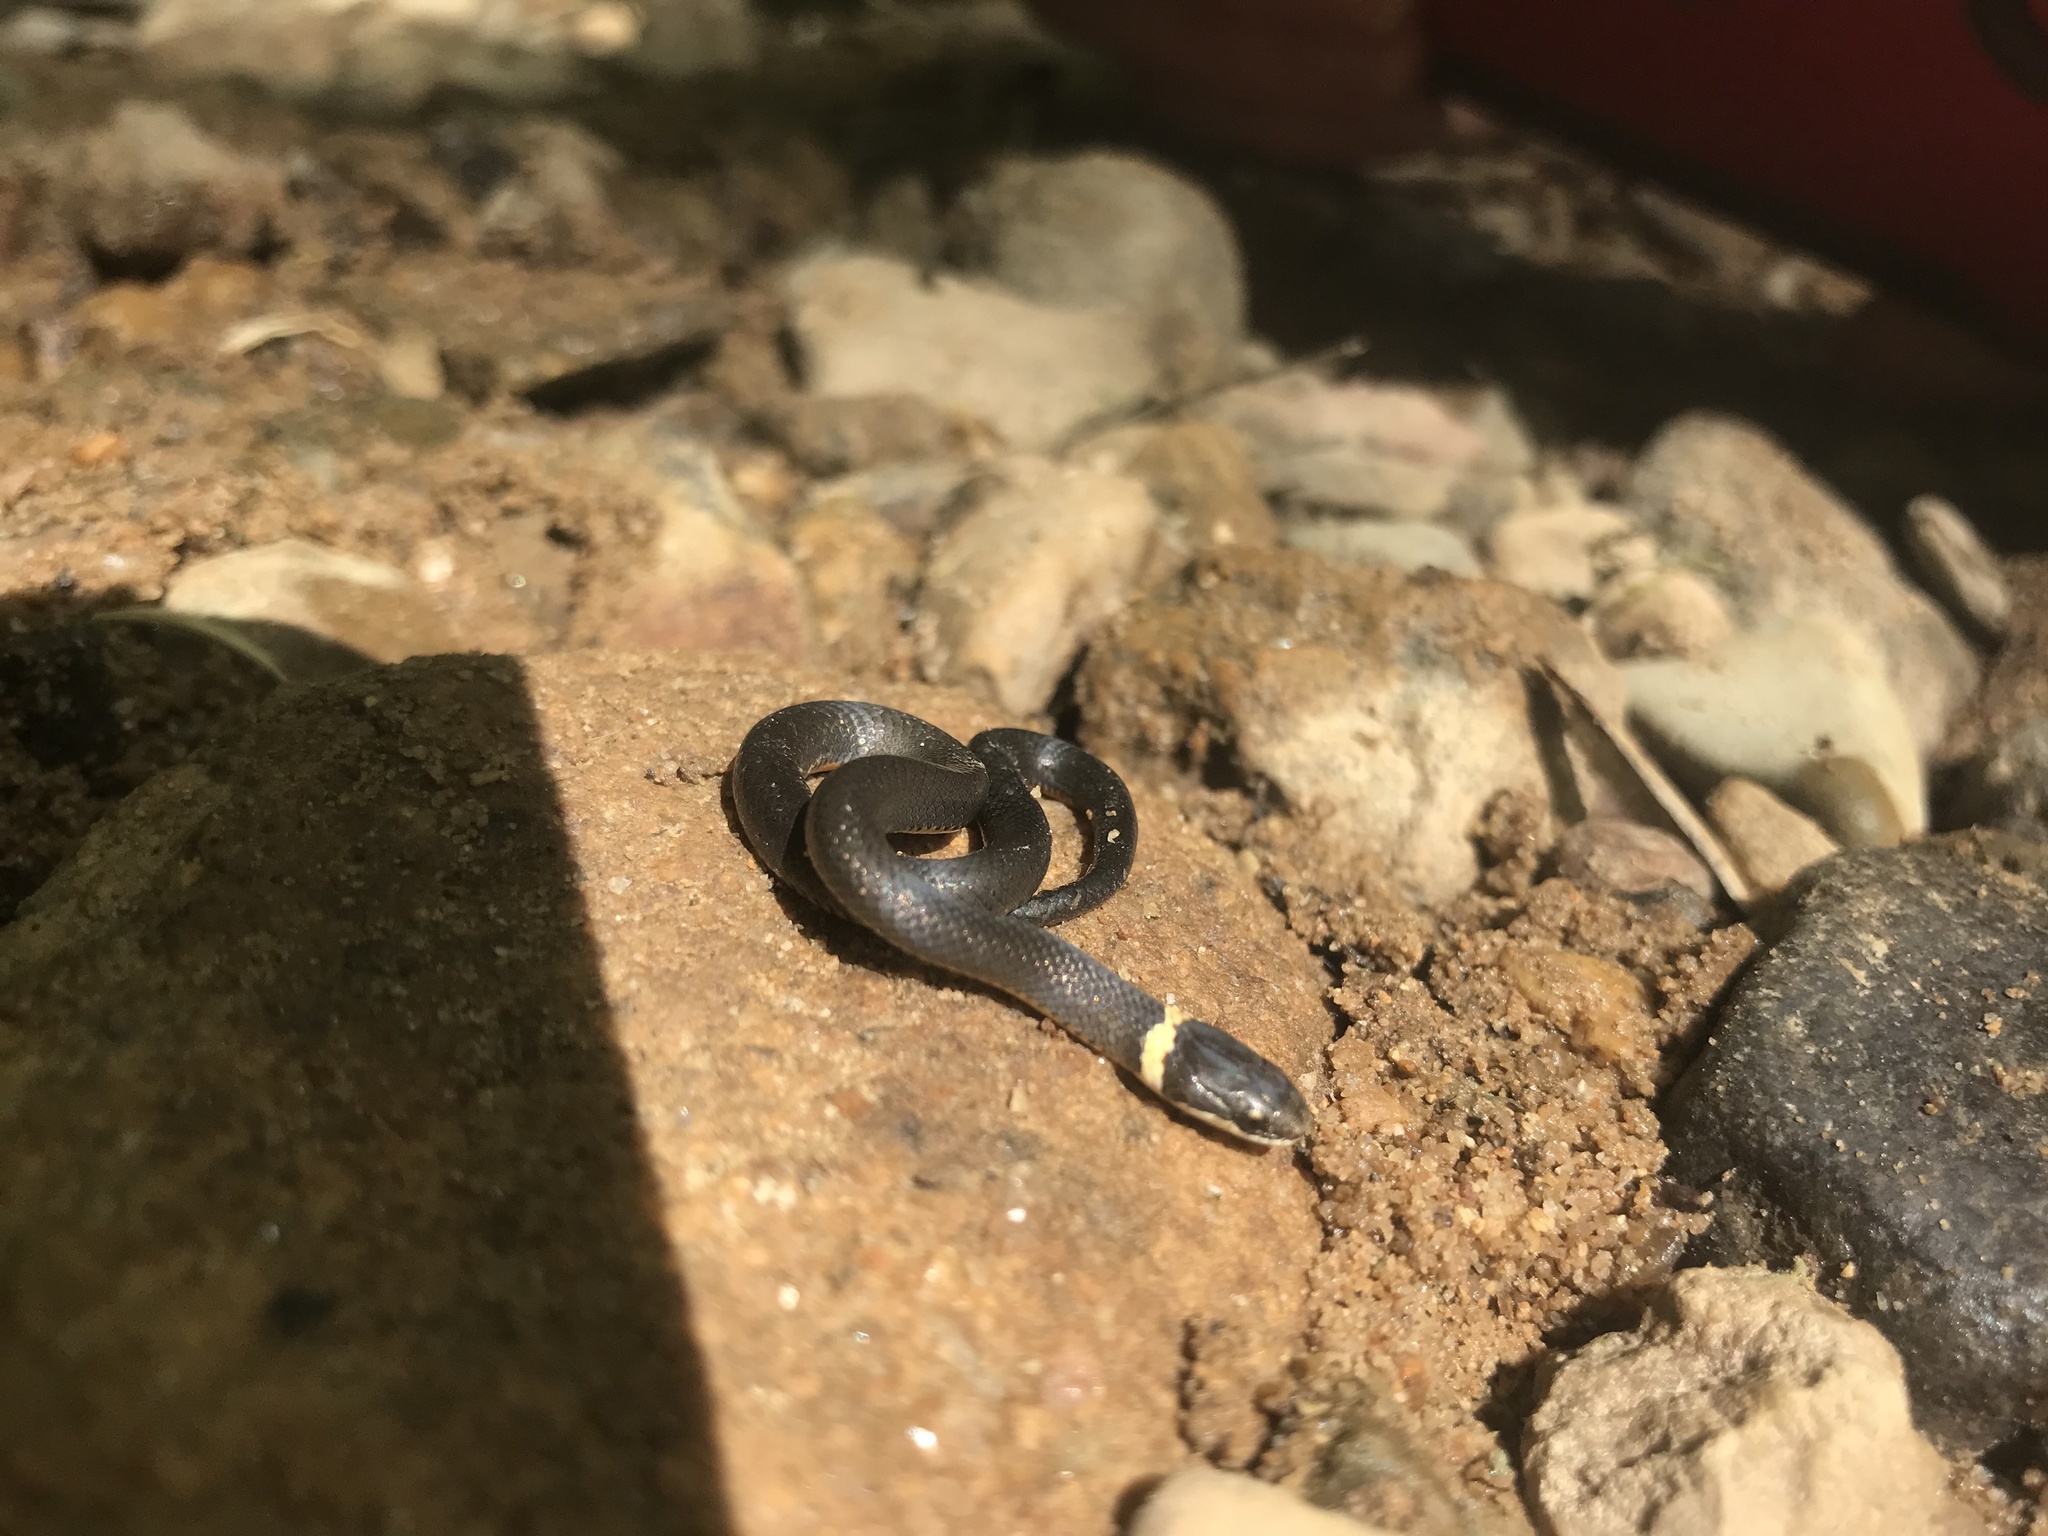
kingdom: Animalia
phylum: Chordata
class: Squamata
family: Colubridae
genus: Diadophis
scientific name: Diadophis punctatus
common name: Ringneck snake
